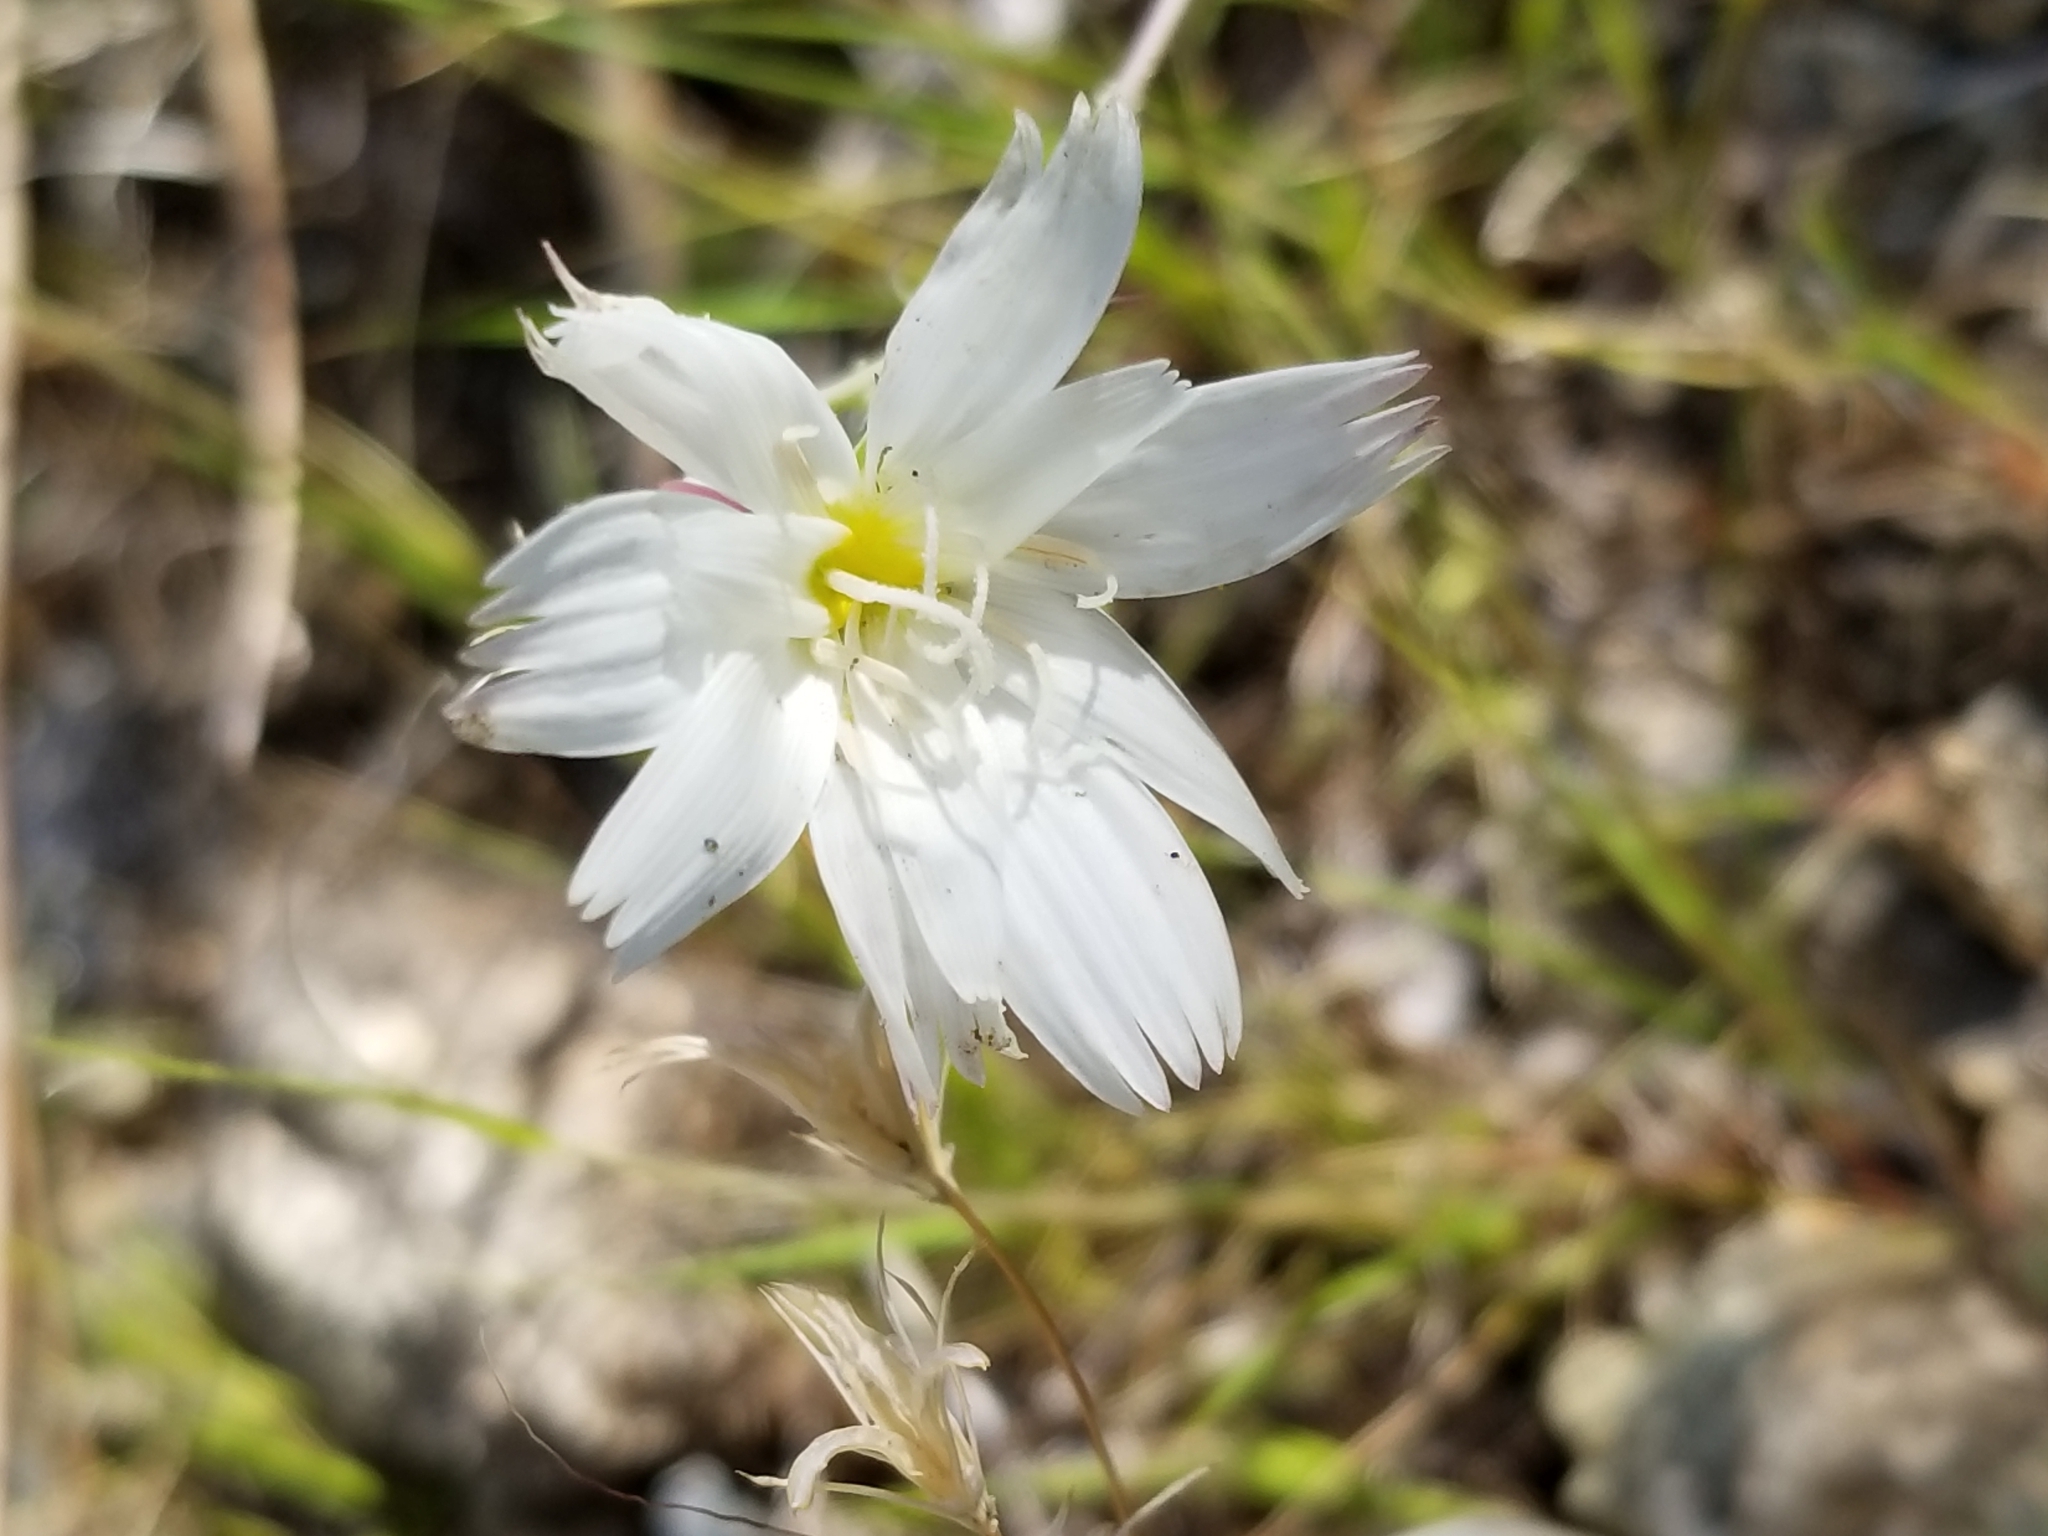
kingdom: Plantae
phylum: Tracheophyta
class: Magnoliopsida
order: Asterales
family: Asteraceae
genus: Rafinesquia
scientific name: Rafinesquia neomexicana
